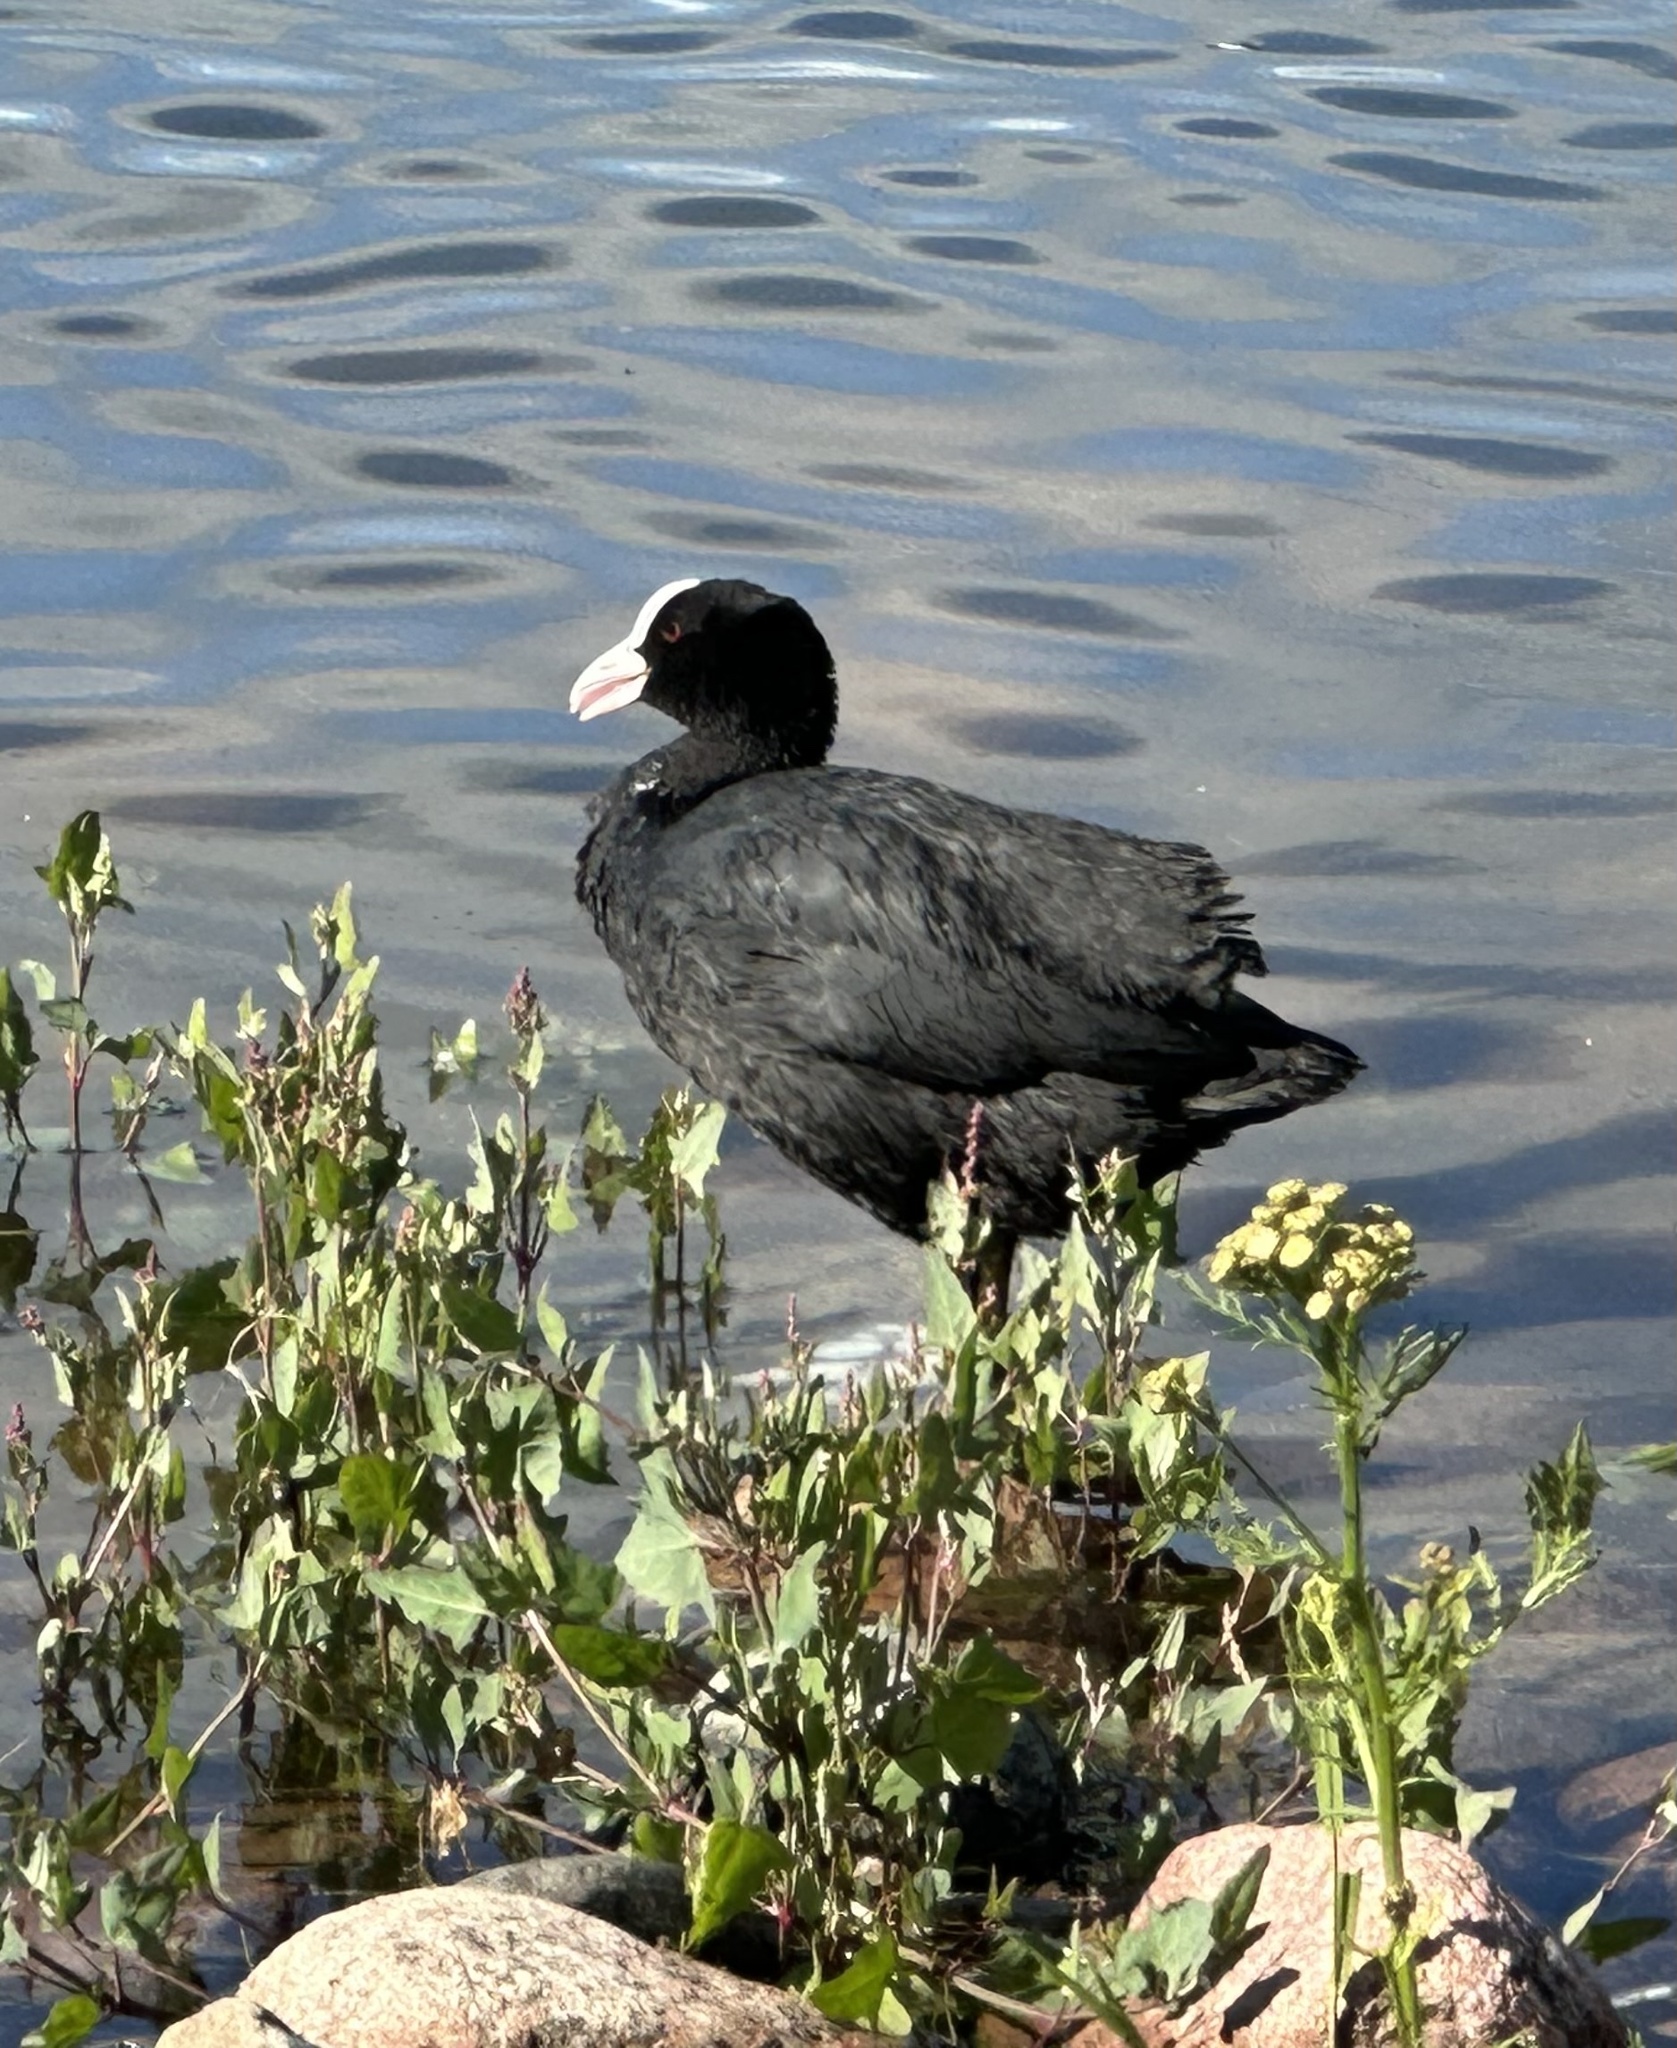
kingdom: Animalia
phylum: Chordata
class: Aves
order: Gruiformes
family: Rallidae
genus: Fulica
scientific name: Fulica atra
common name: Eurasian coot
